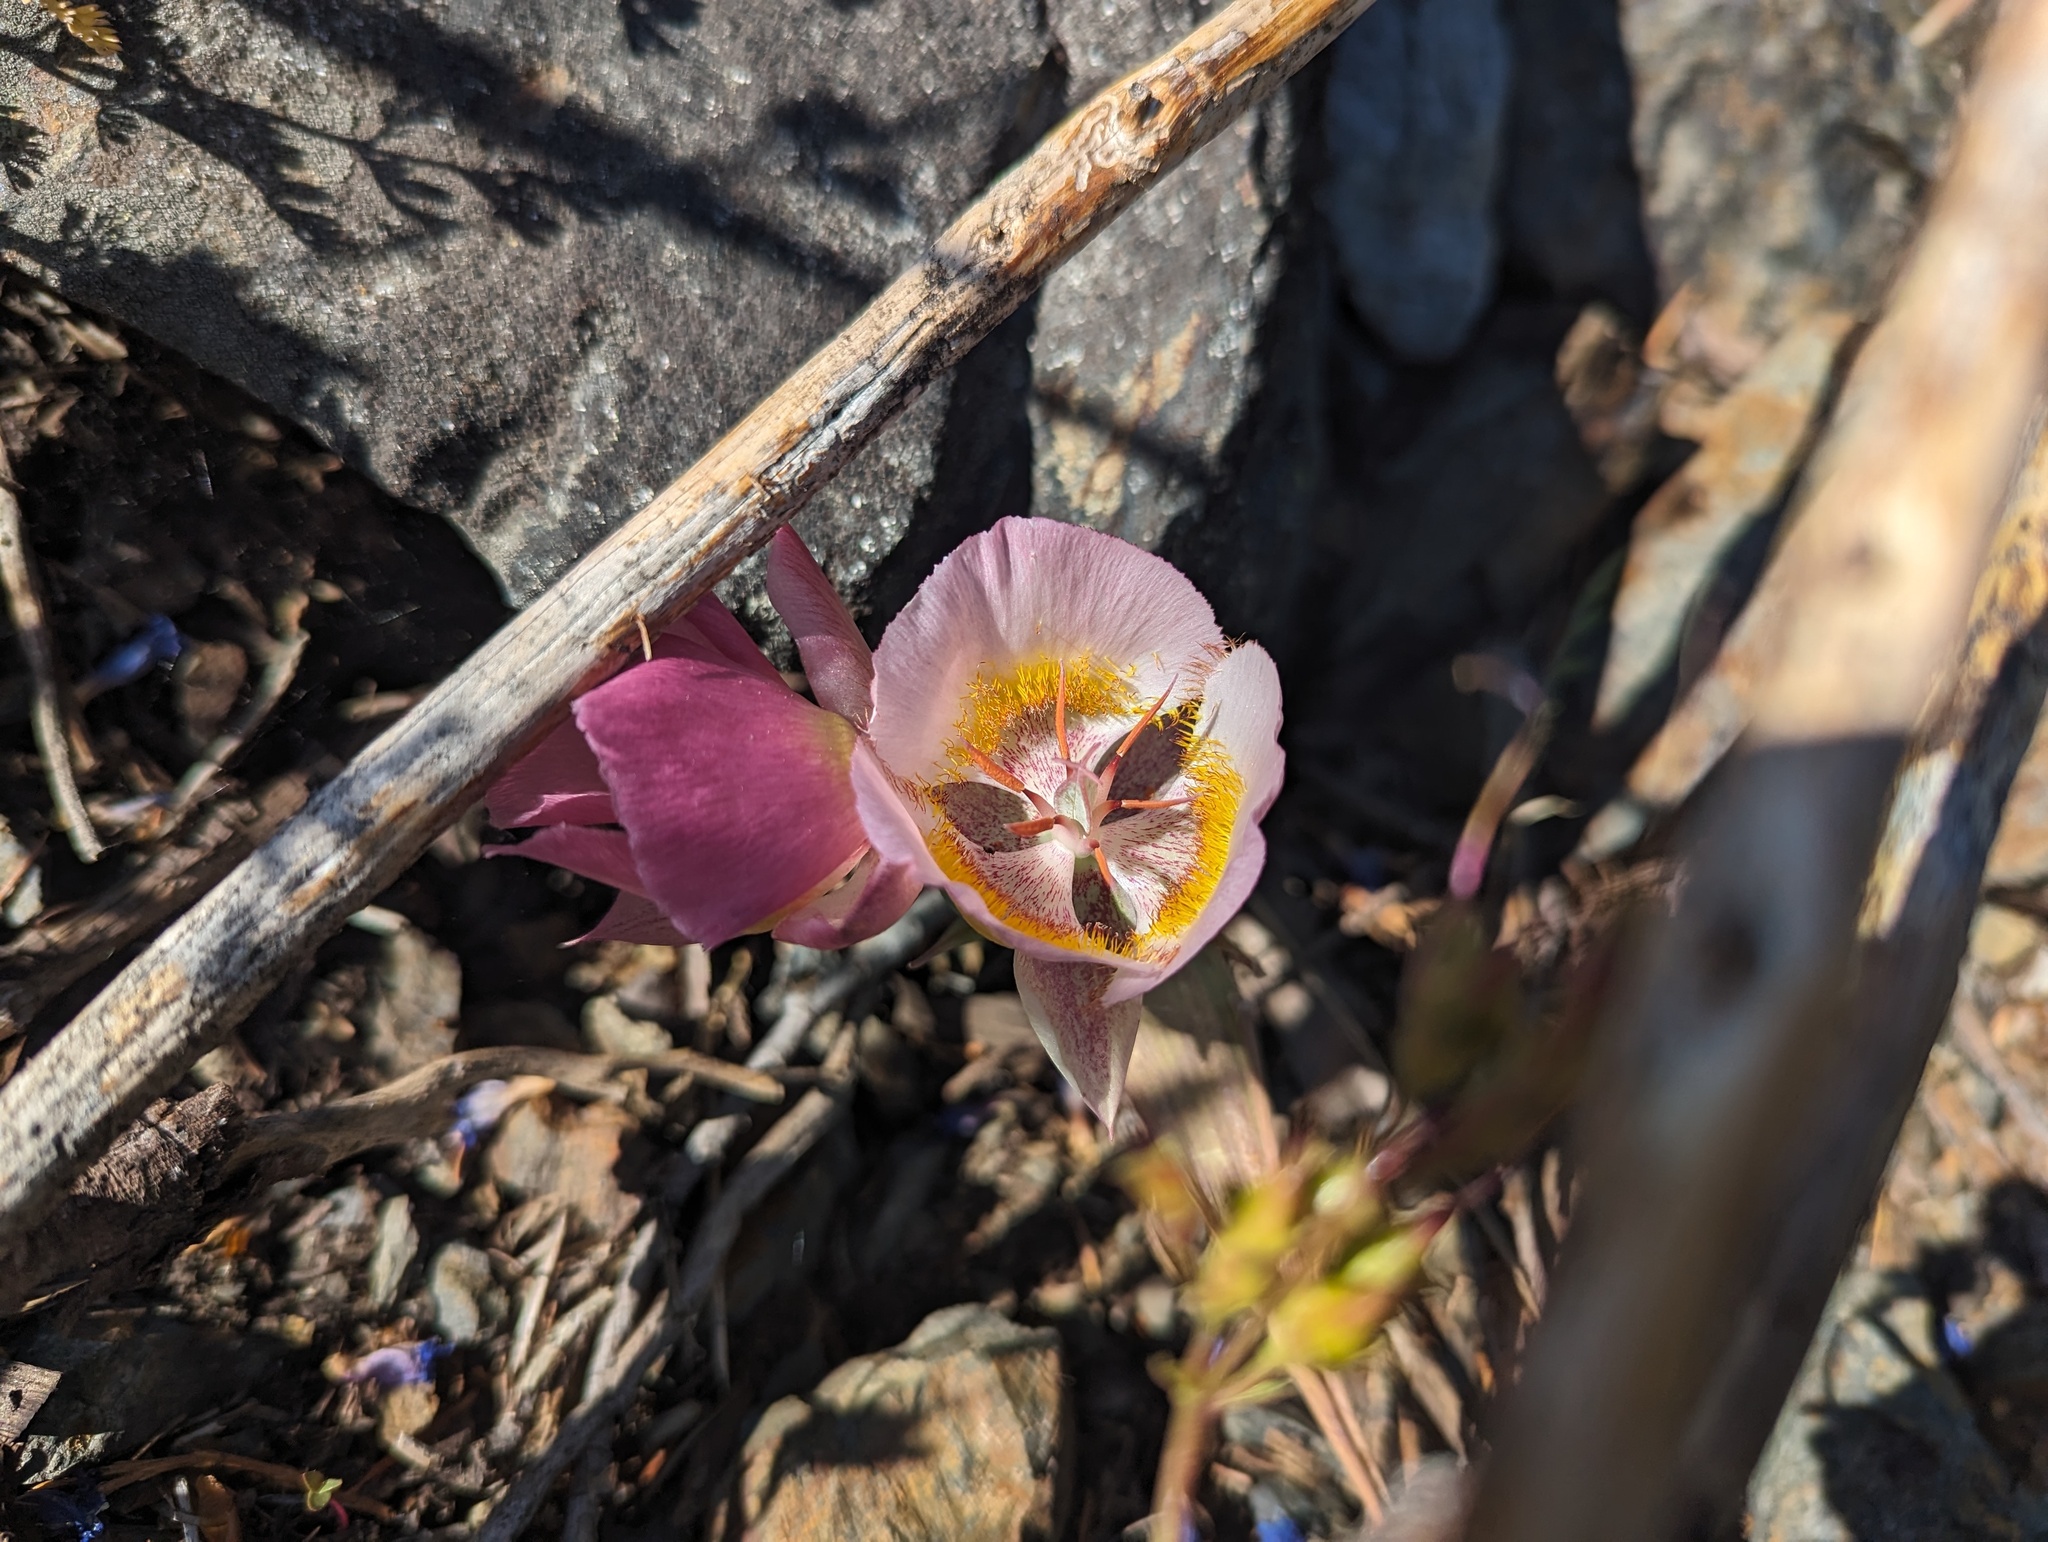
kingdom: Plantae
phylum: Tracheophyta
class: Liliopsida
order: Liliales
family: Liliaceae
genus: Calochortus
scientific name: Calochortus persistens
